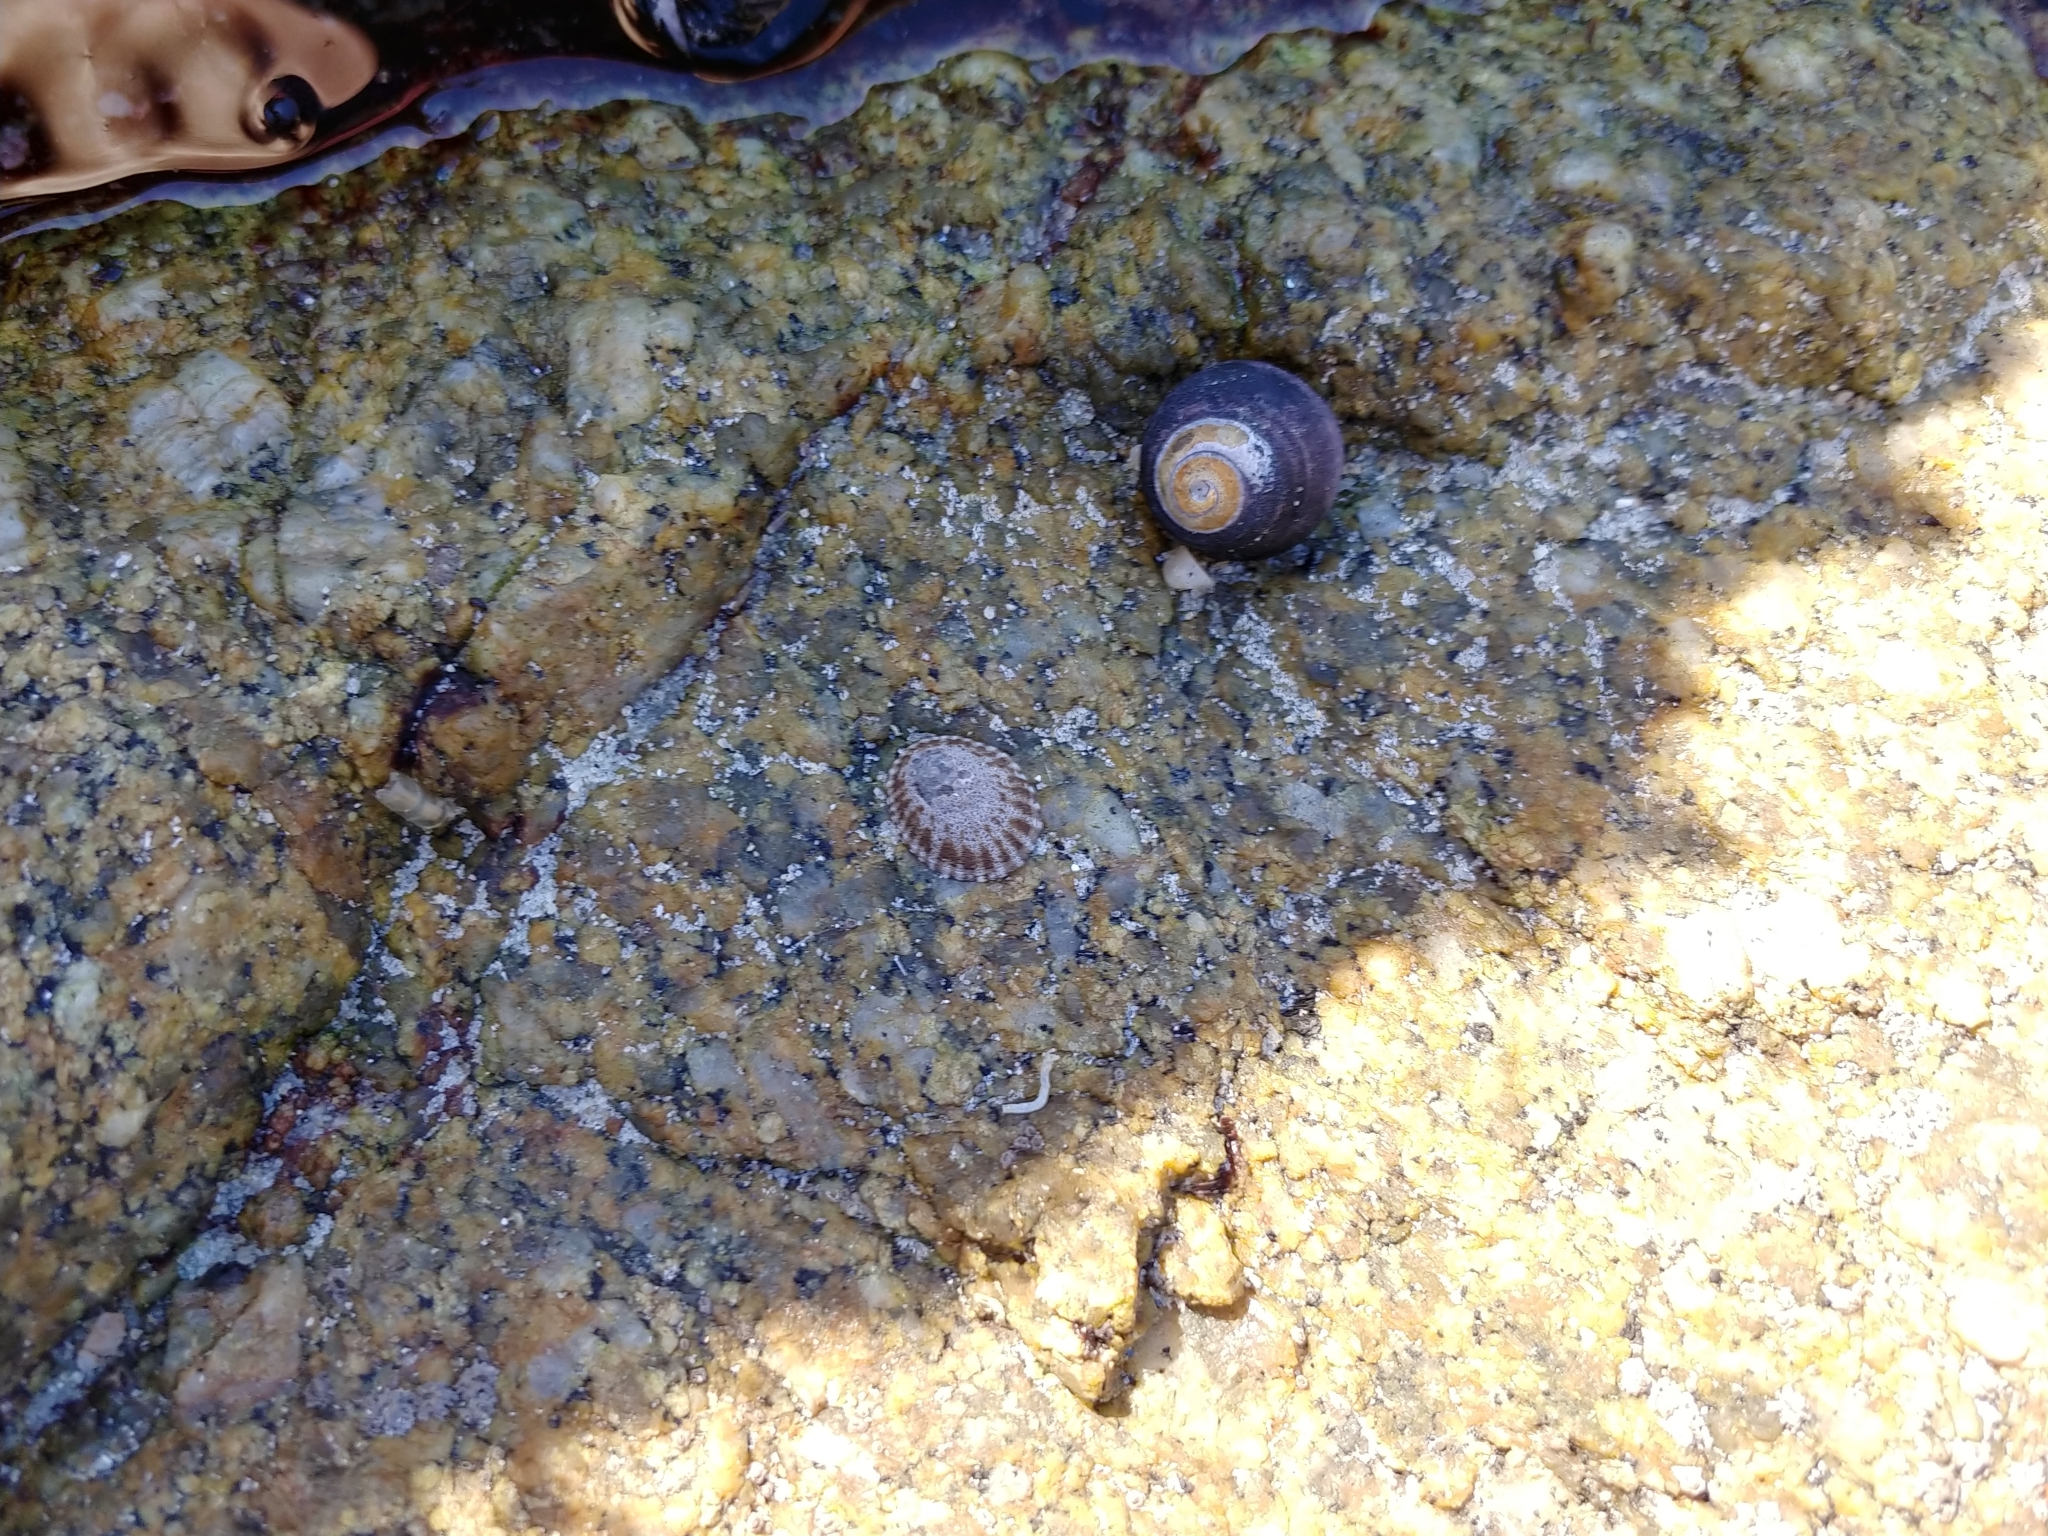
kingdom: Animalia
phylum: Mollusca
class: Gastropoda
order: Trochida
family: Tegulidae
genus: Tegula
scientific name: Tegula funebralis
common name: Black tegula
